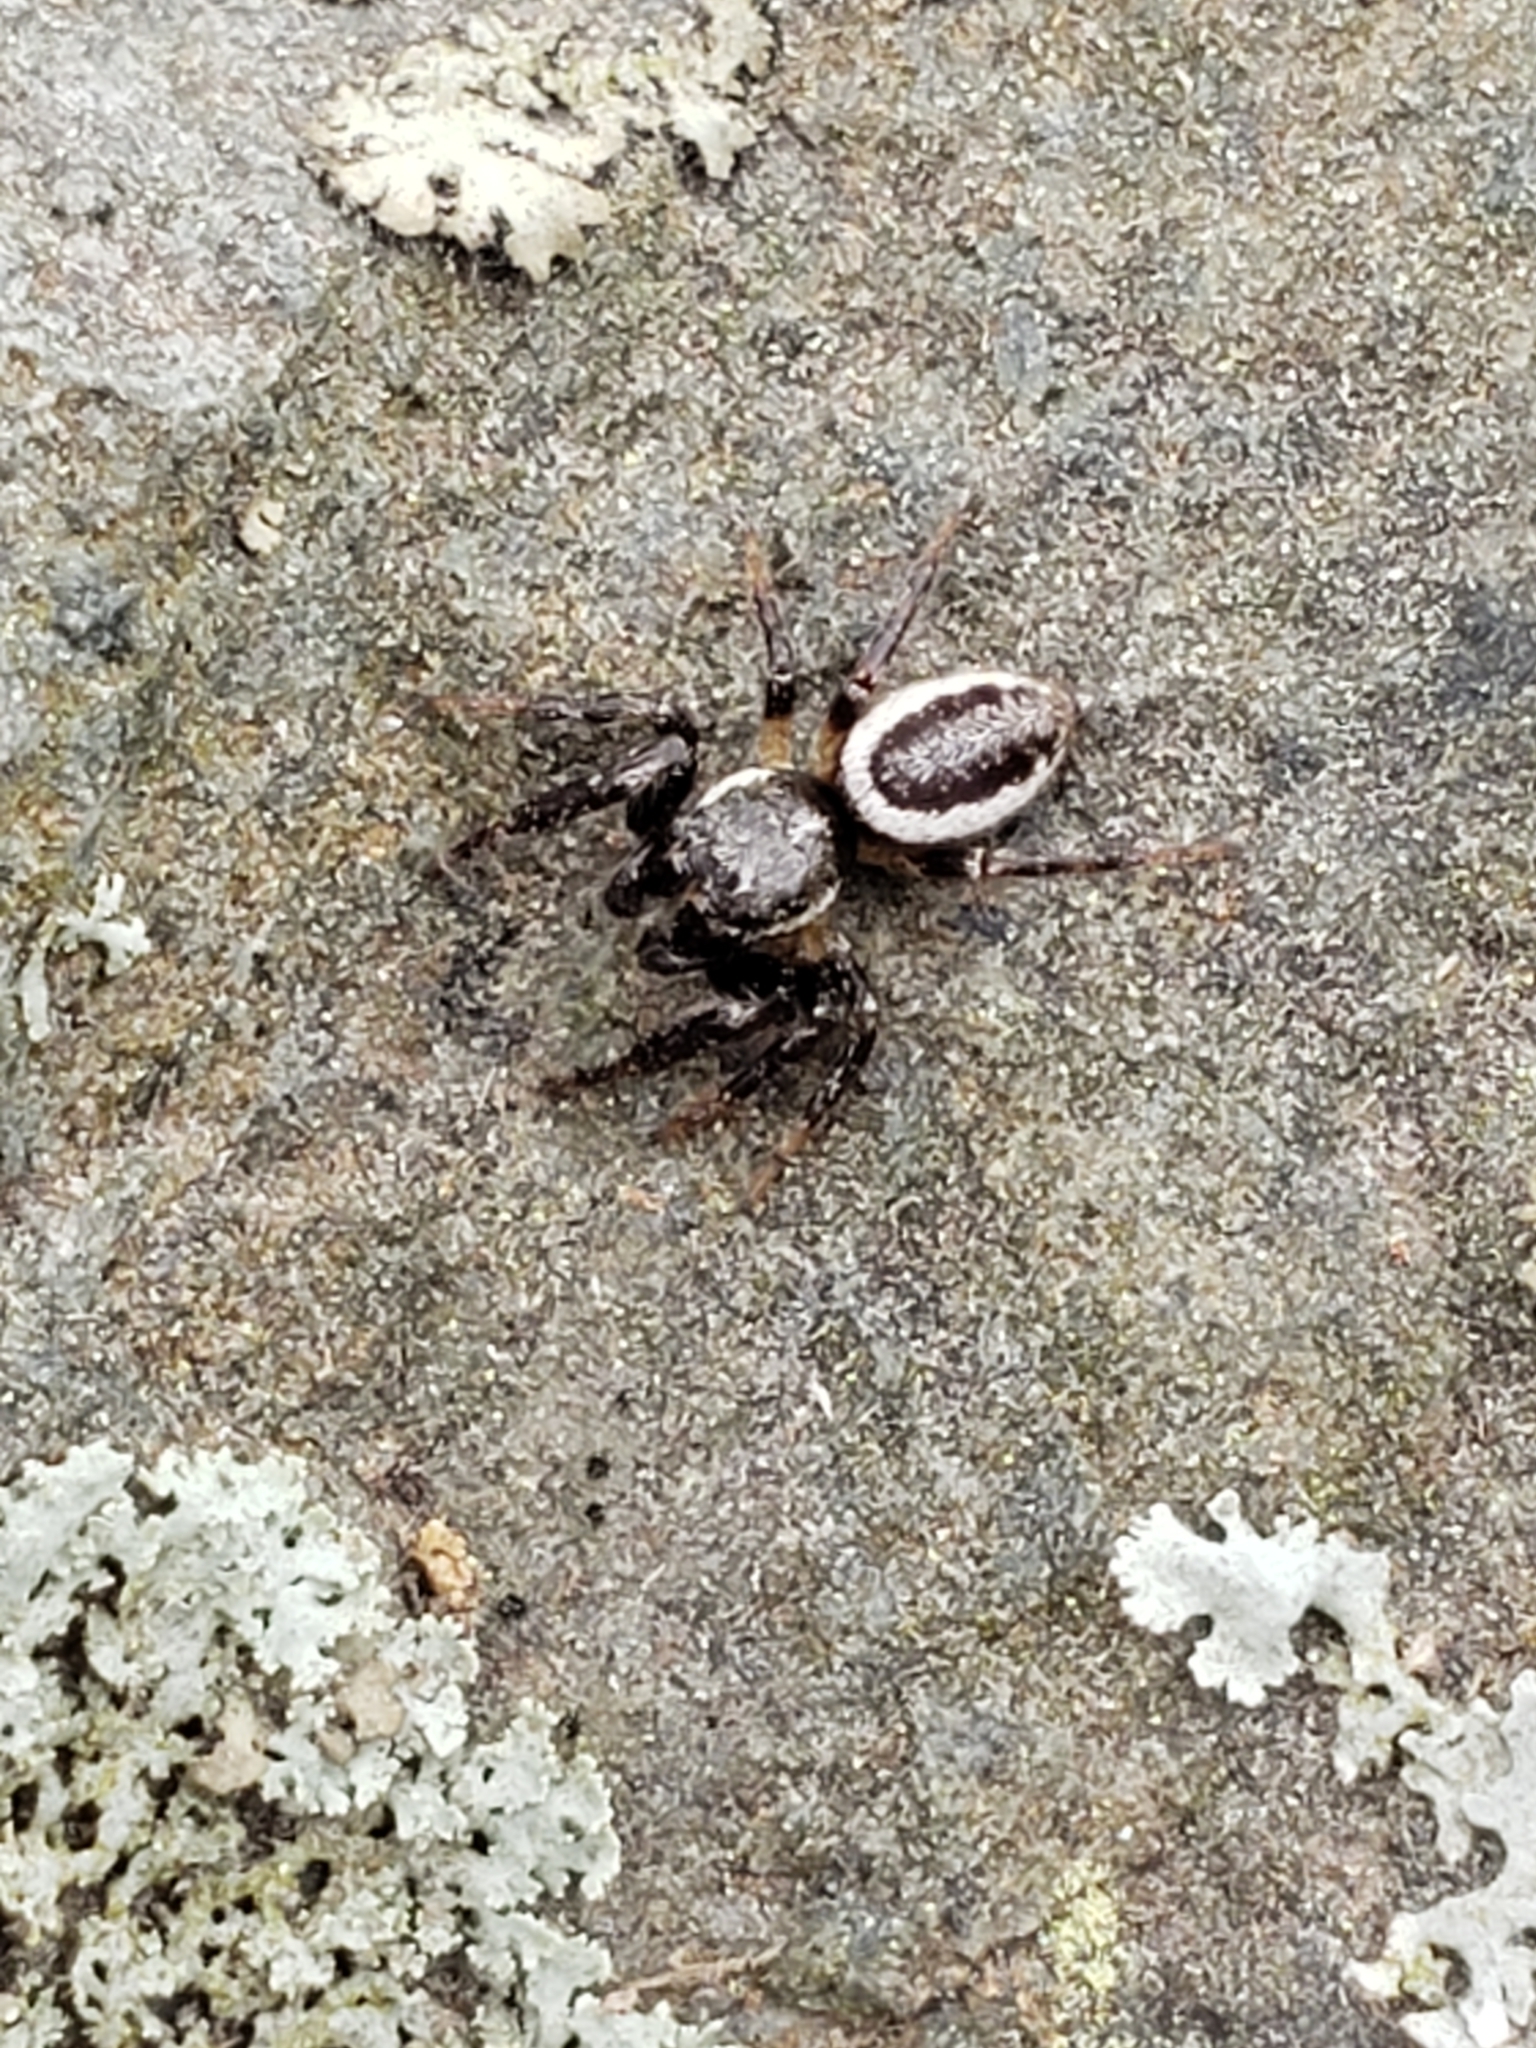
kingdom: Animalia
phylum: Arthropoda
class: Arachnida
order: Araneae
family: Salticidae
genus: Eris
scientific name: Eris militaris
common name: Bronze jumper
